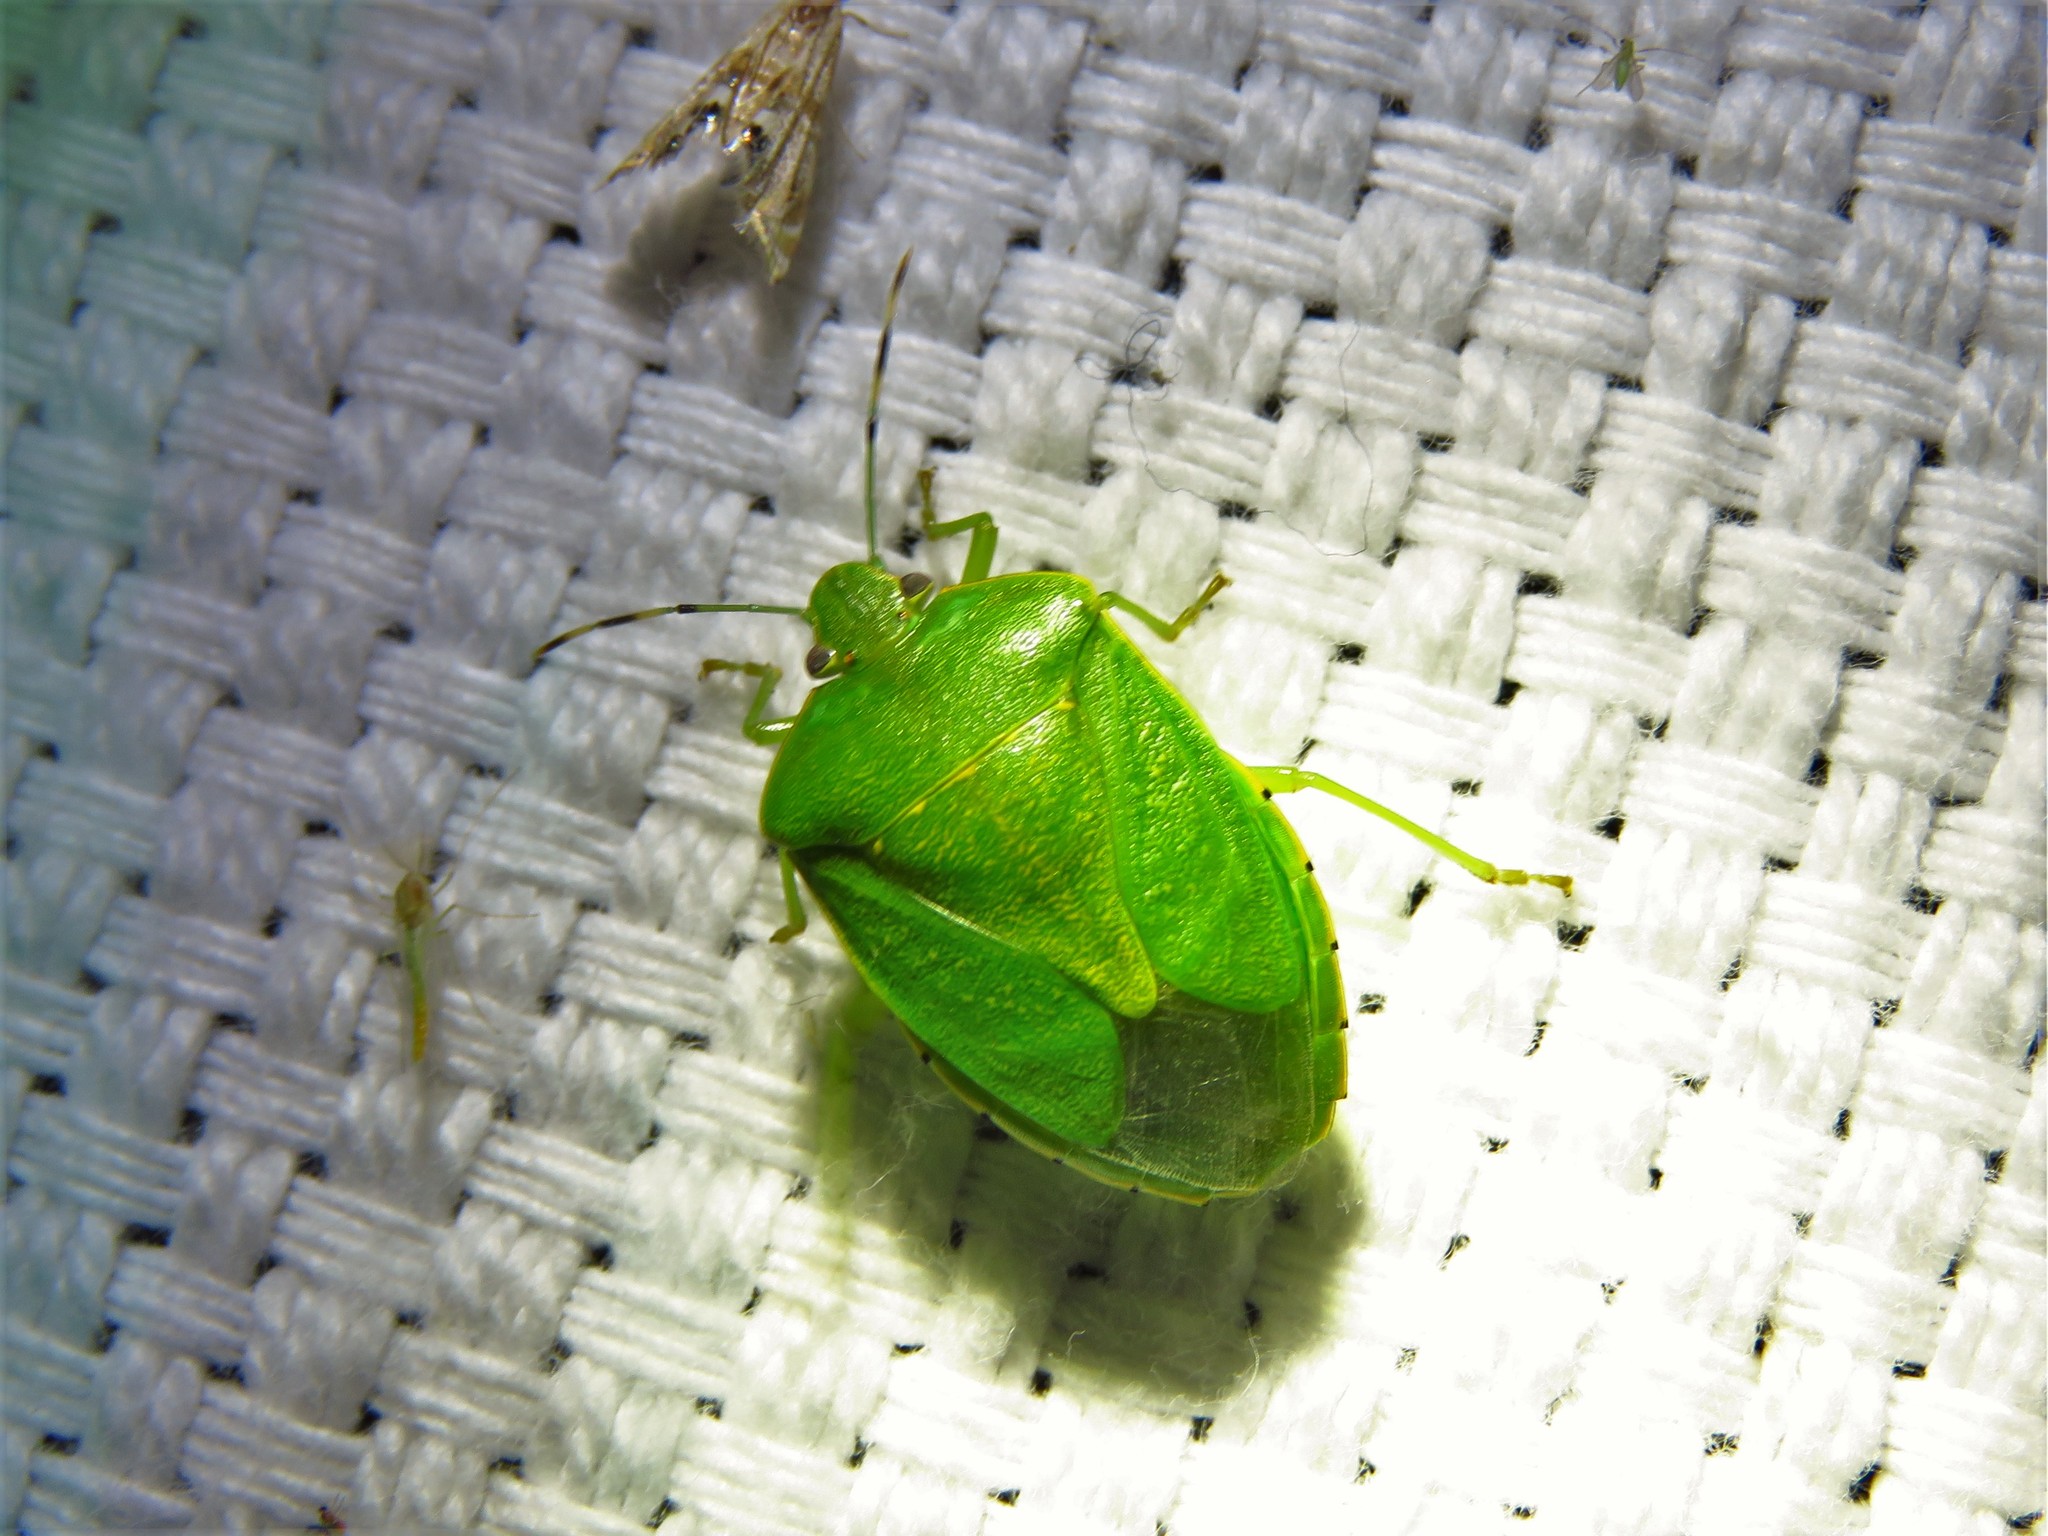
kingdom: Animalia
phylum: Arthropoda
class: Insecta
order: Hemiptera
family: Pentatomidae
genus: Chinavia
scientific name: Chinavia hilaris
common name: Green stink bug
